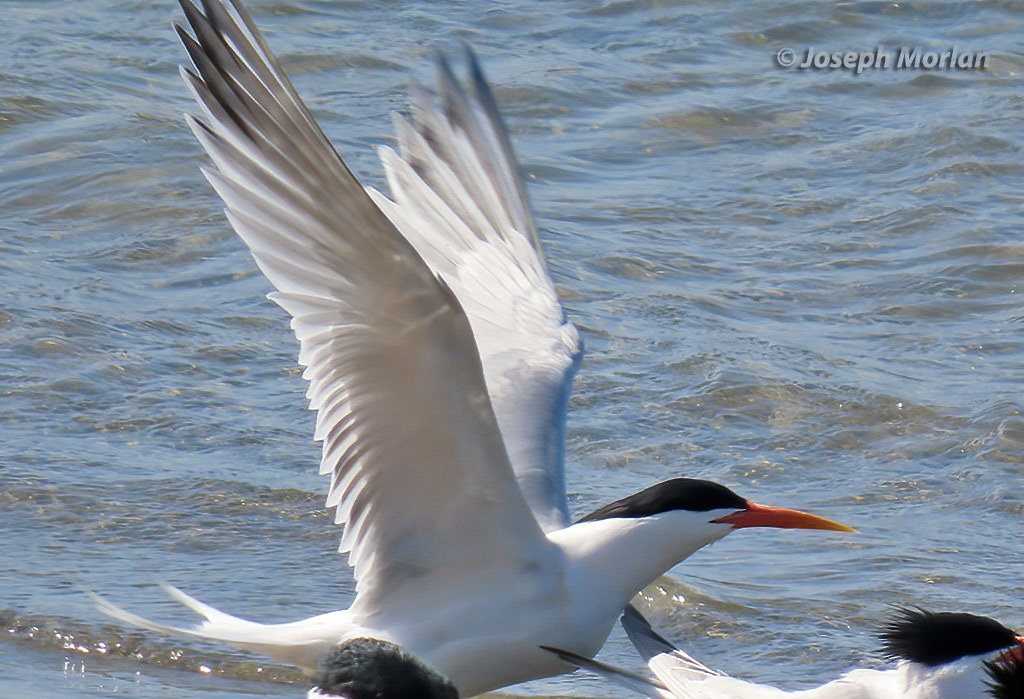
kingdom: Animalia
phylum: Chordata
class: Aves
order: Charadriiformes
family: Laridae
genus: Thalasseus
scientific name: Thalasseus elegans
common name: Elegant tern
